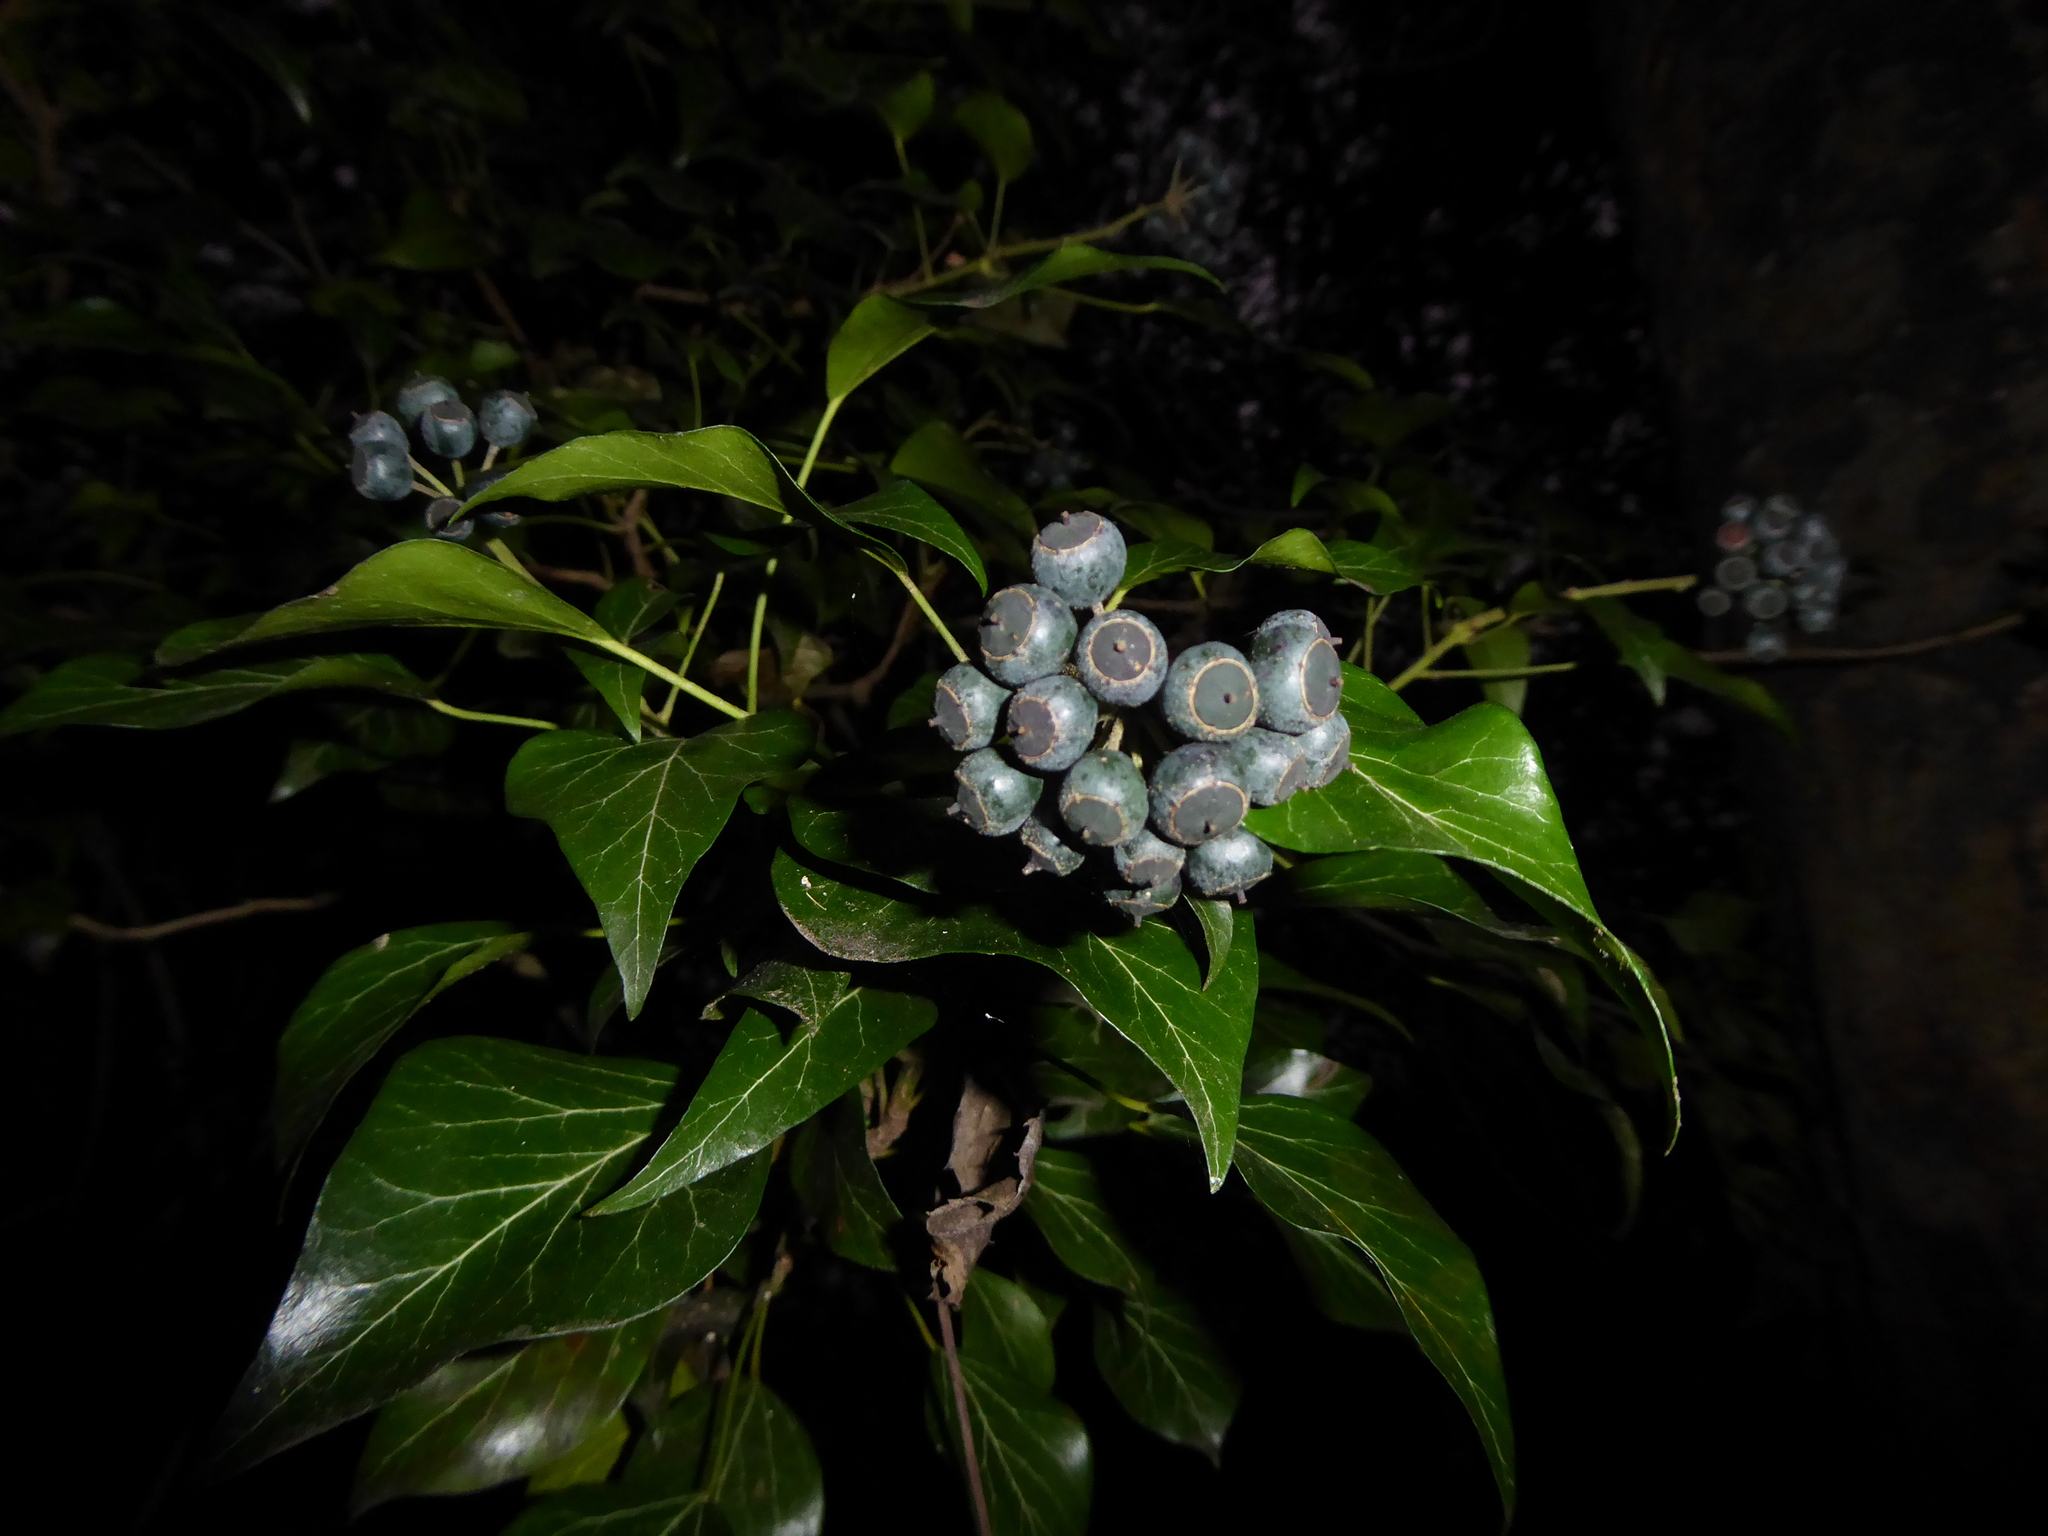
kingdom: Plantae
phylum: Tracheophyta
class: Magnoliopsida
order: Apiales
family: Araliaceae
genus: Hedera
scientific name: Hedera helix
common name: Ivy
